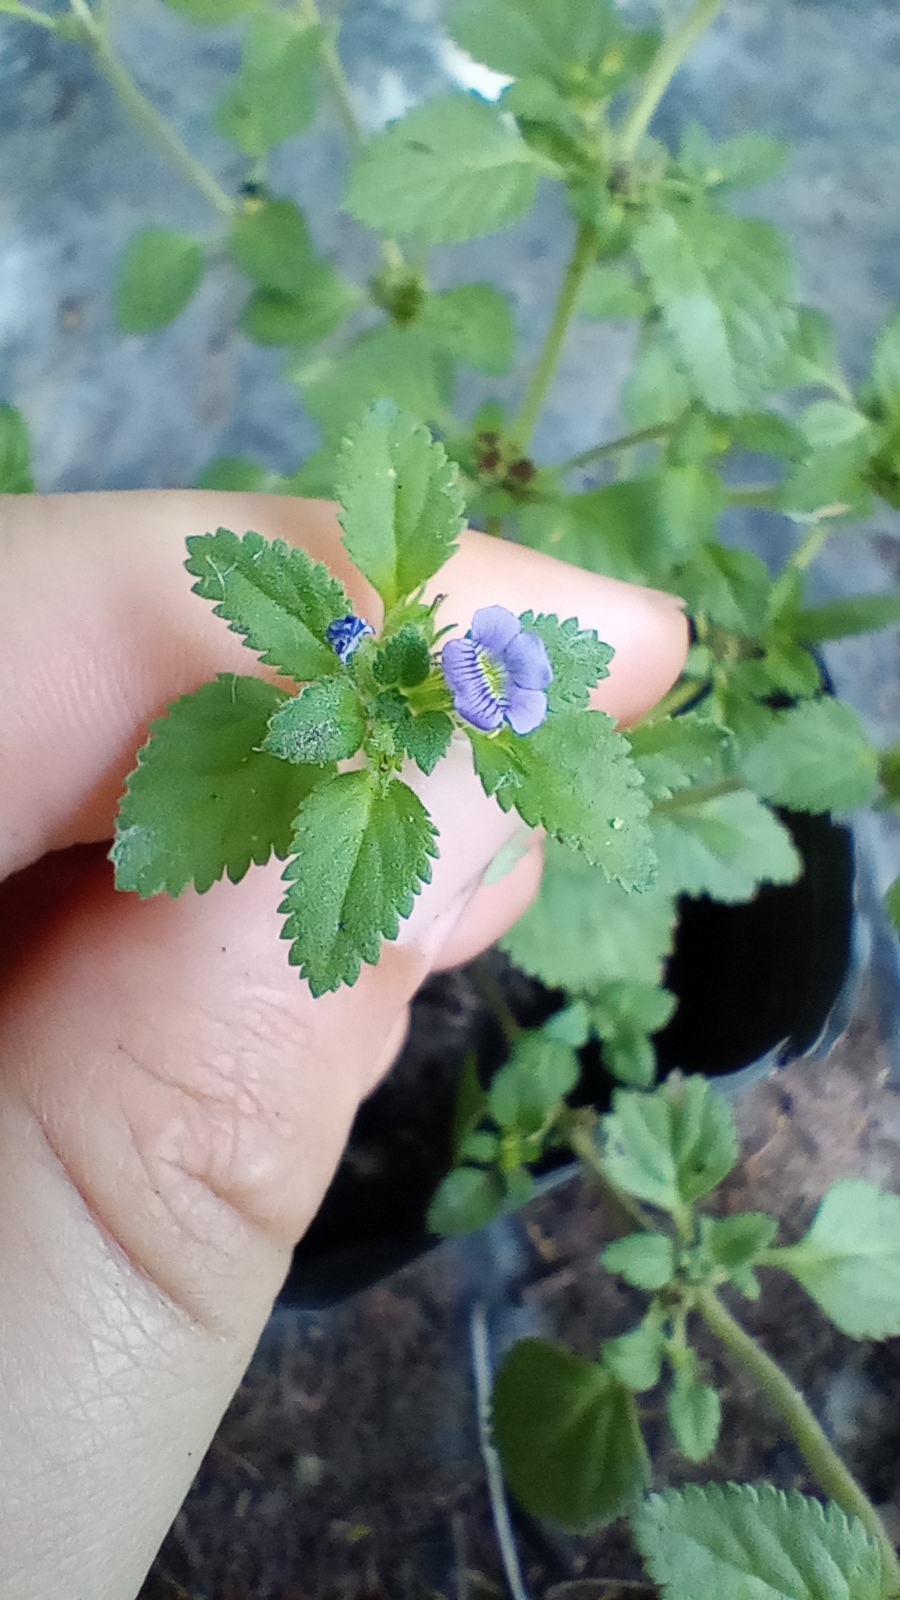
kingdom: Plantae
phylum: Tracheophyta
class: Magnoliopsida
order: Lamiales
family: Plantaginaceae
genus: Stemodia
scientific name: Stemodia verticillata
